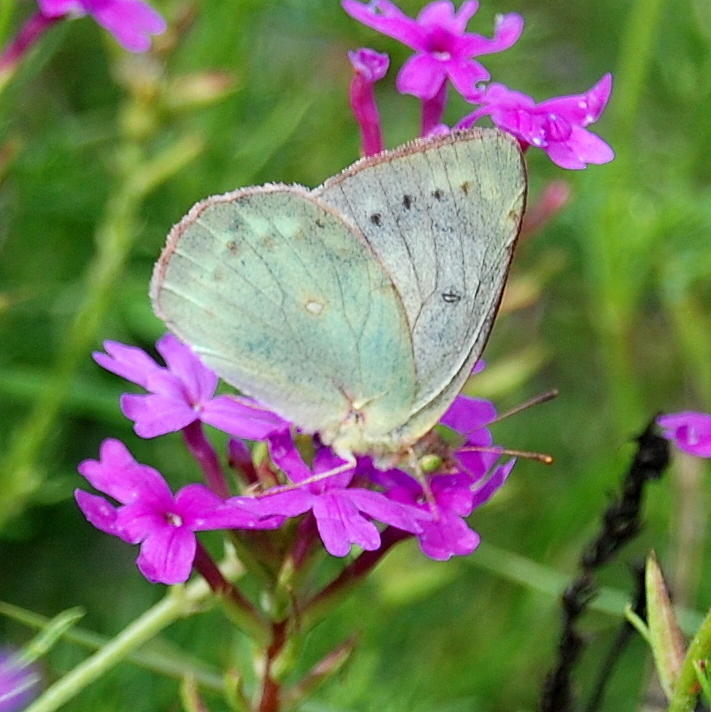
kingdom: Animalia
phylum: Arthropoda
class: Insecta
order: Lepidoptera
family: Pieridae
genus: Colias
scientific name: Colias lesbia
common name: Lesbia clouded yellow
